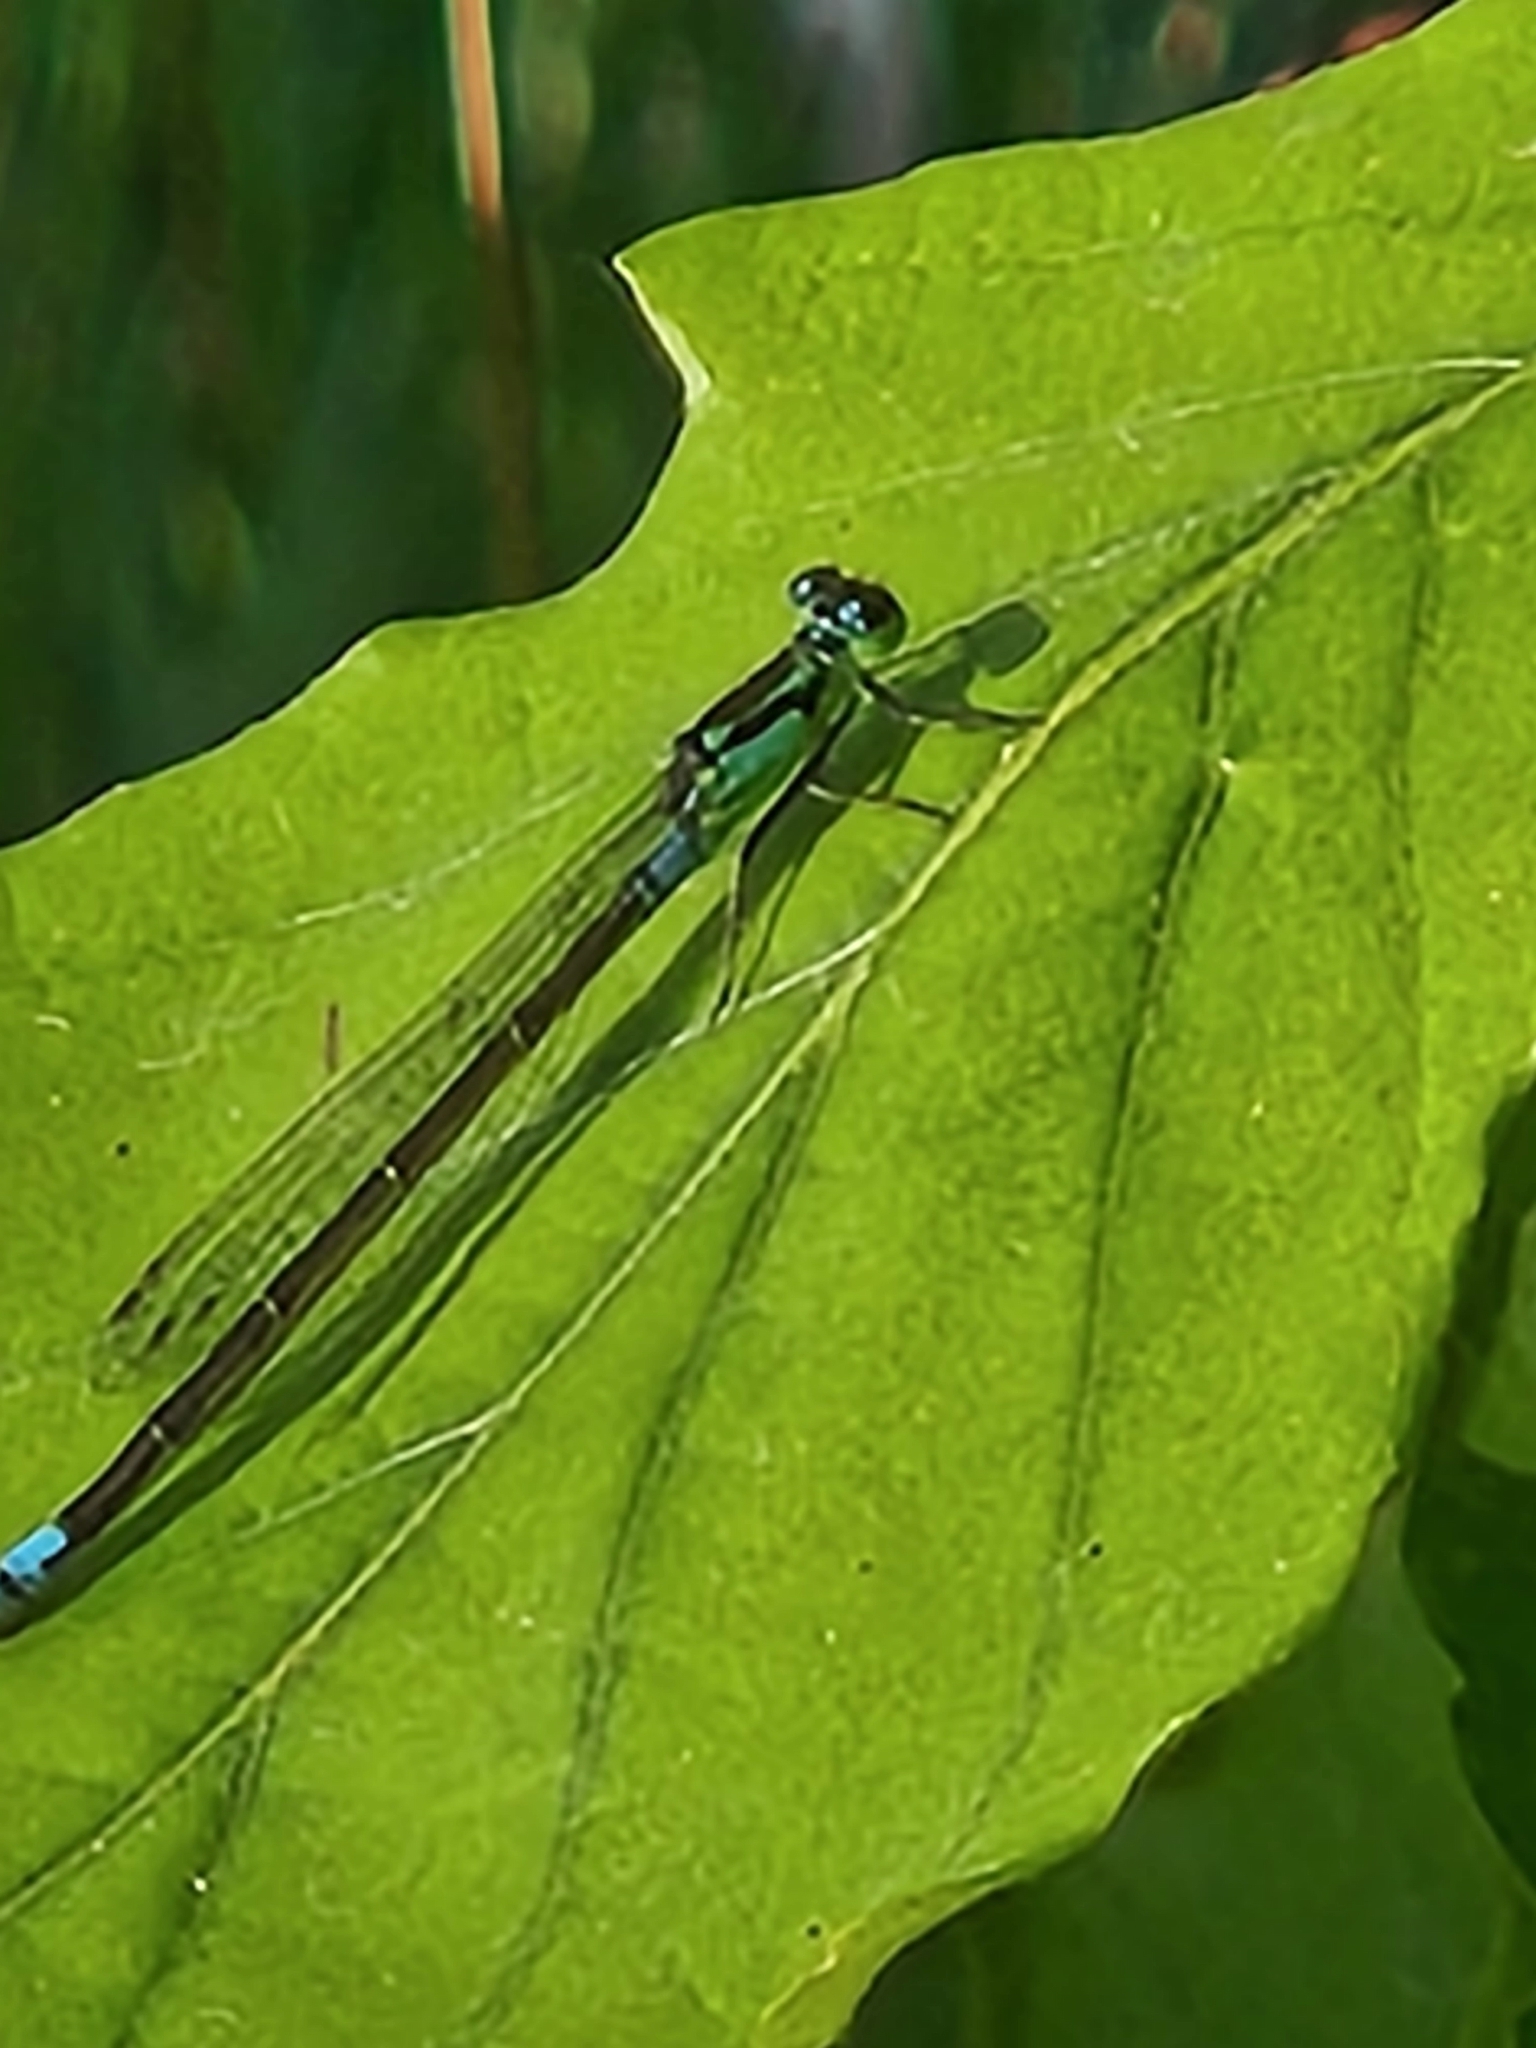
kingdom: Animalia
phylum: Arthropoda
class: Insecta
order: Odonata
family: Coenagrionidae
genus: Ischnura
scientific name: Ischnura damula
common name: Plains forktail
